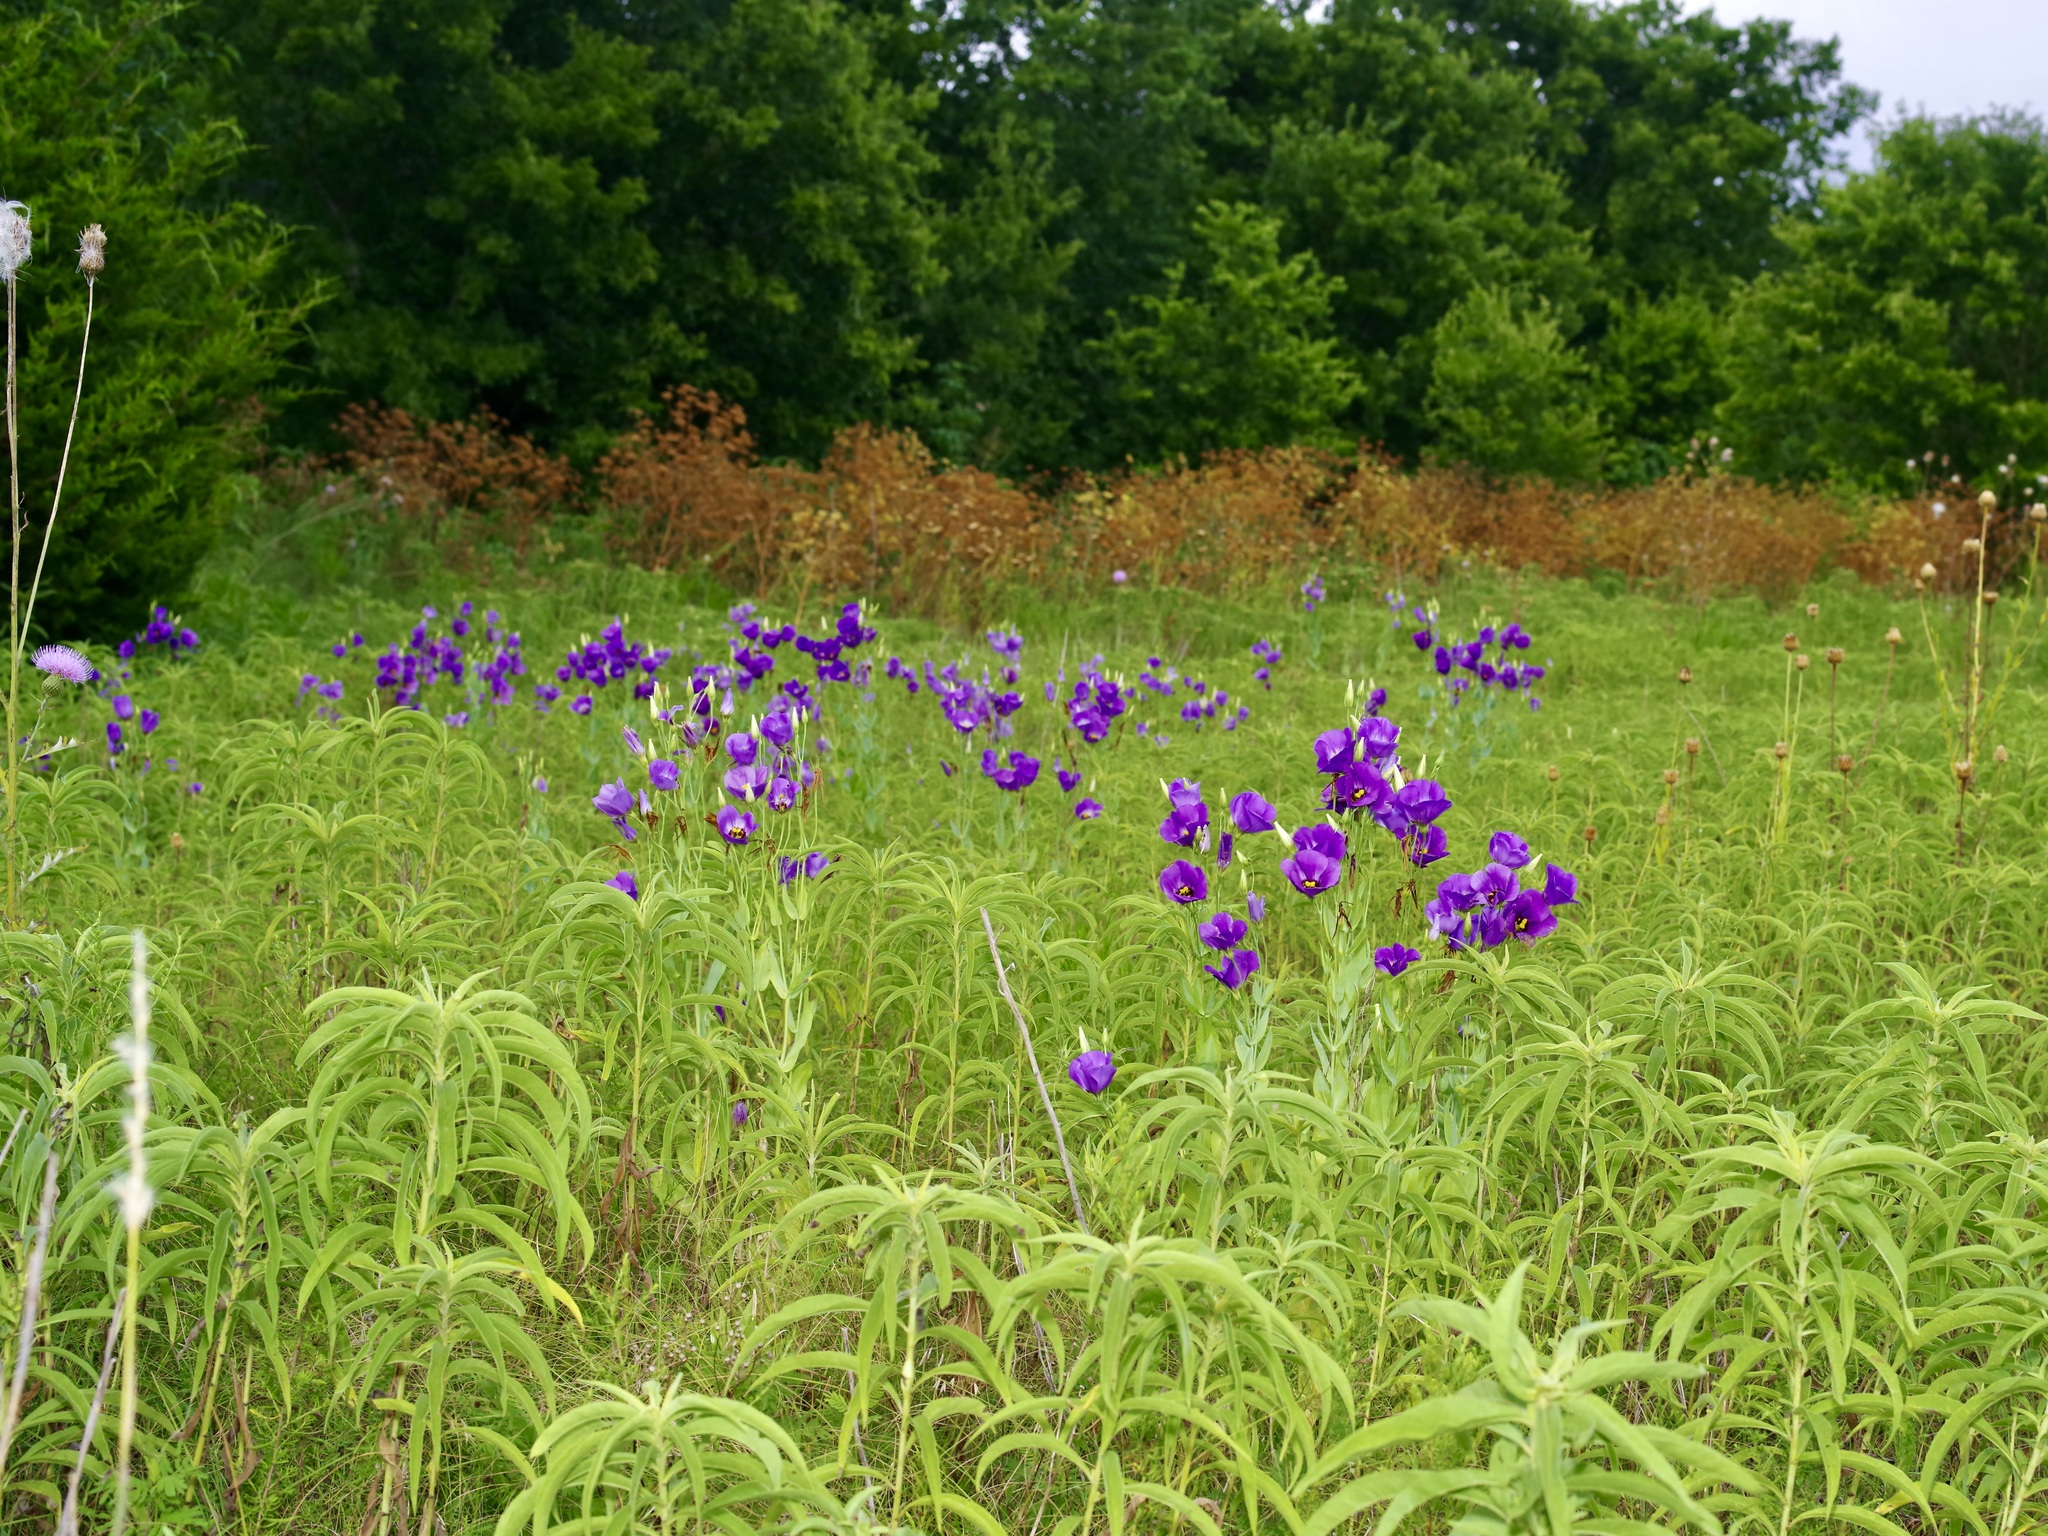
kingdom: Plantae
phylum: Tracheophyta
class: Magnoliopsida
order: Gentianales
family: Gentianaceae
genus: Eustoma
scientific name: Eustoma russellianum
